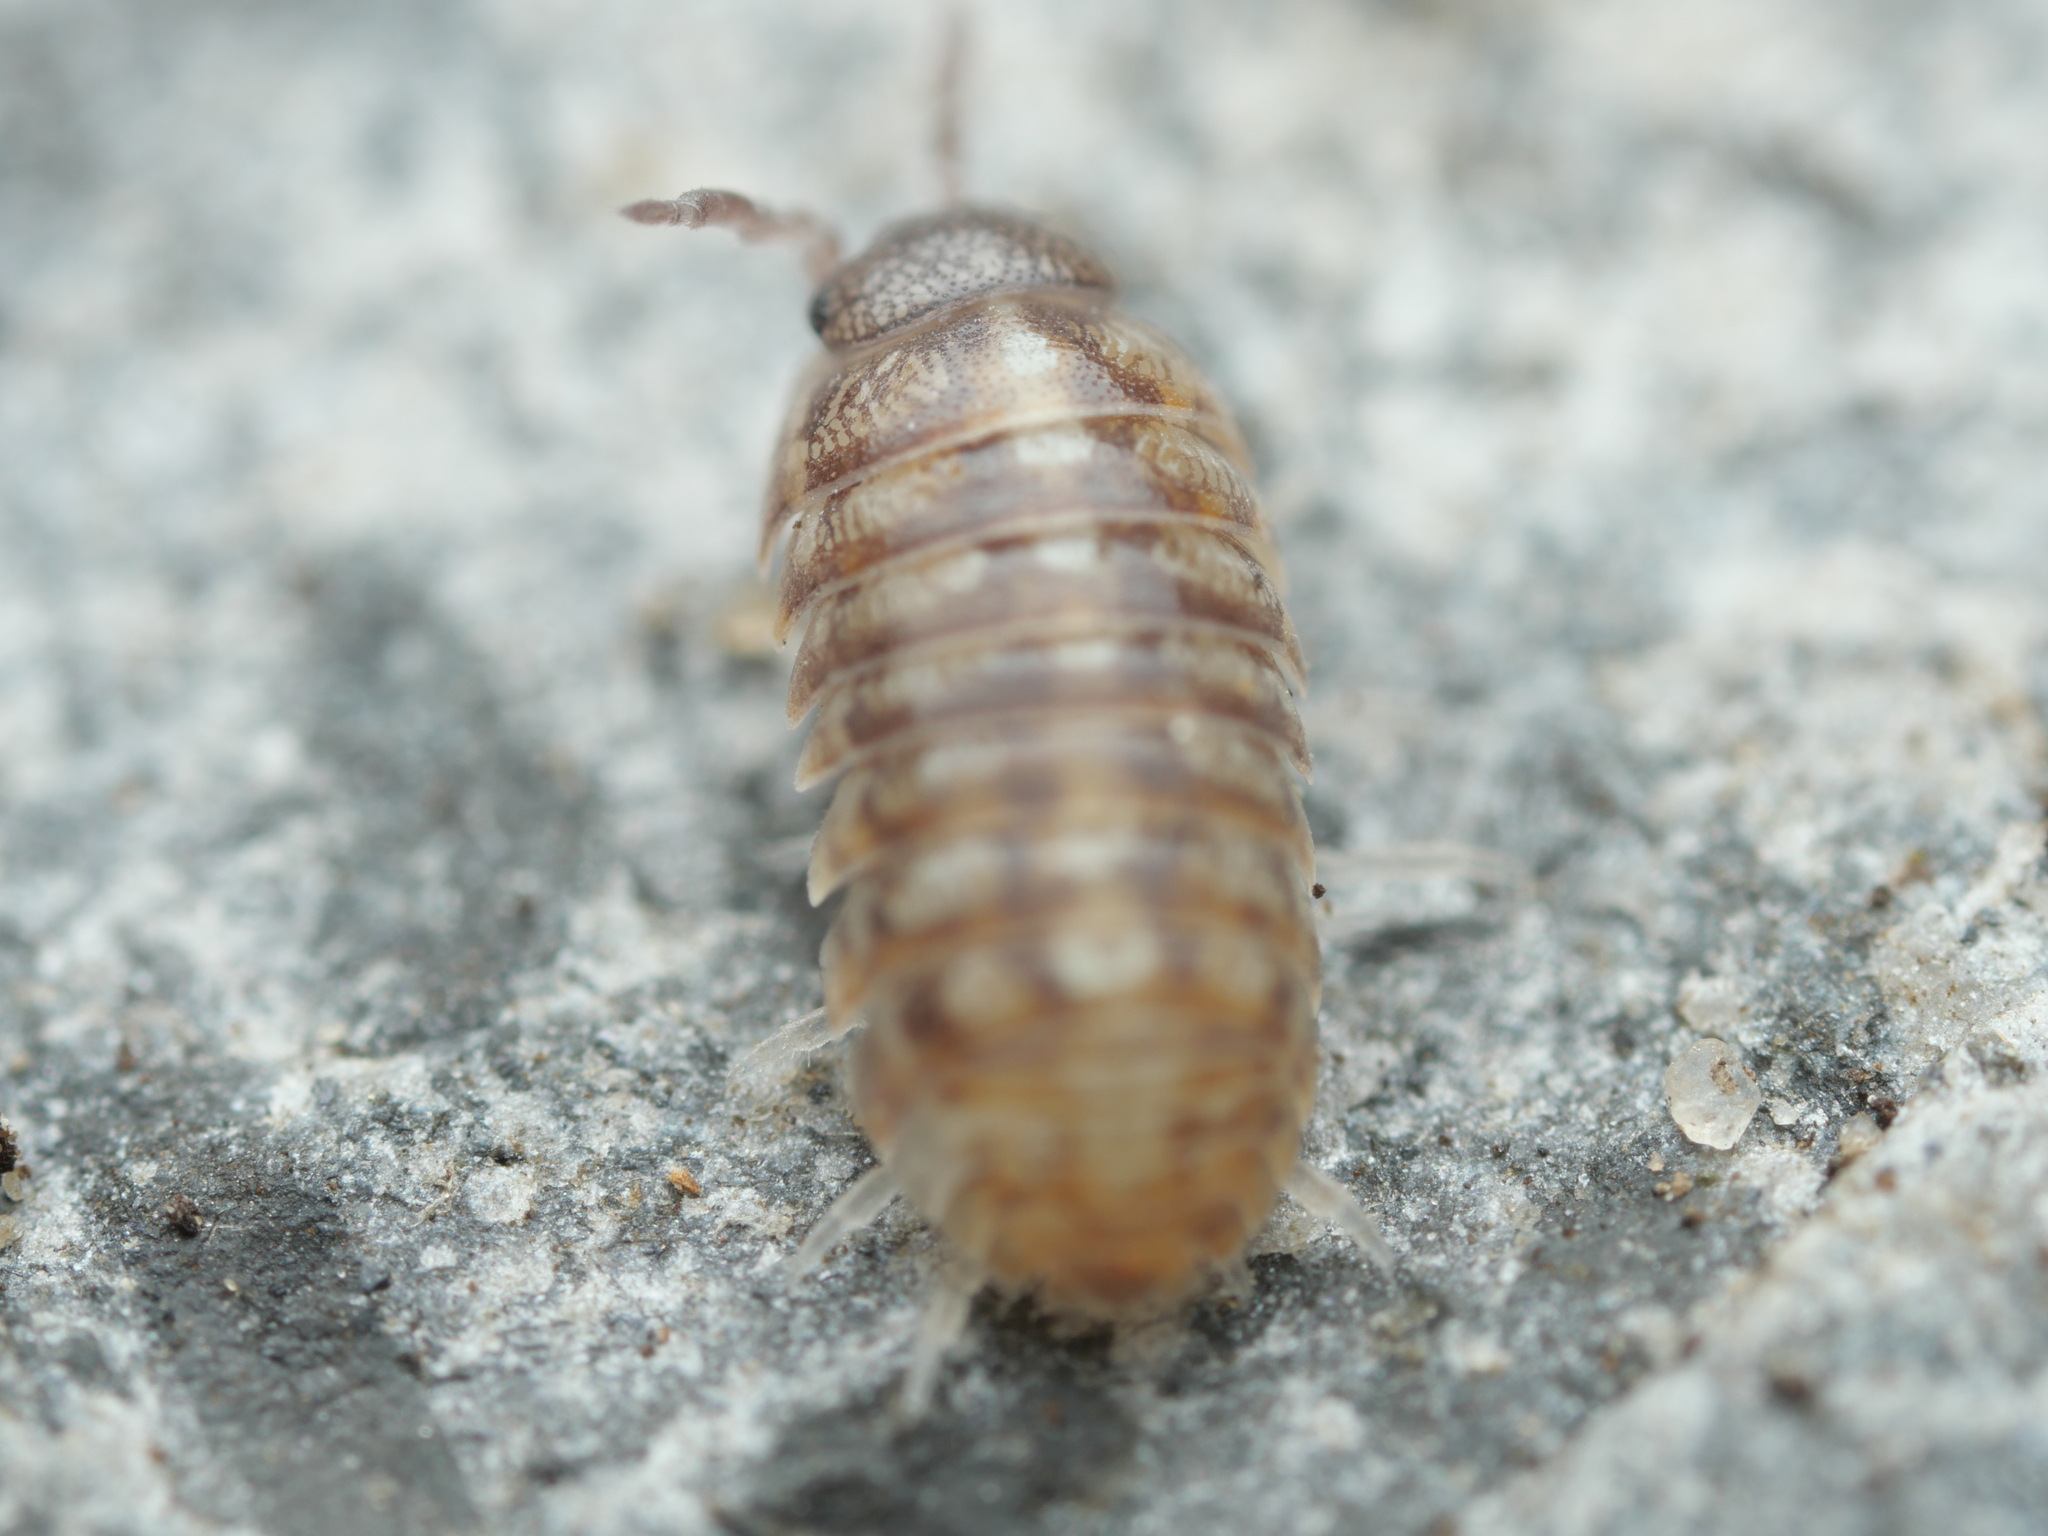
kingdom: Animalia
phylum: Arthropoda
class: Malacostraca
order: Isopoda
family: Armadillidiidae
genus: Armadillidium
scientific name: Armadillidium vulgare
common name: Common pill woodlouse
